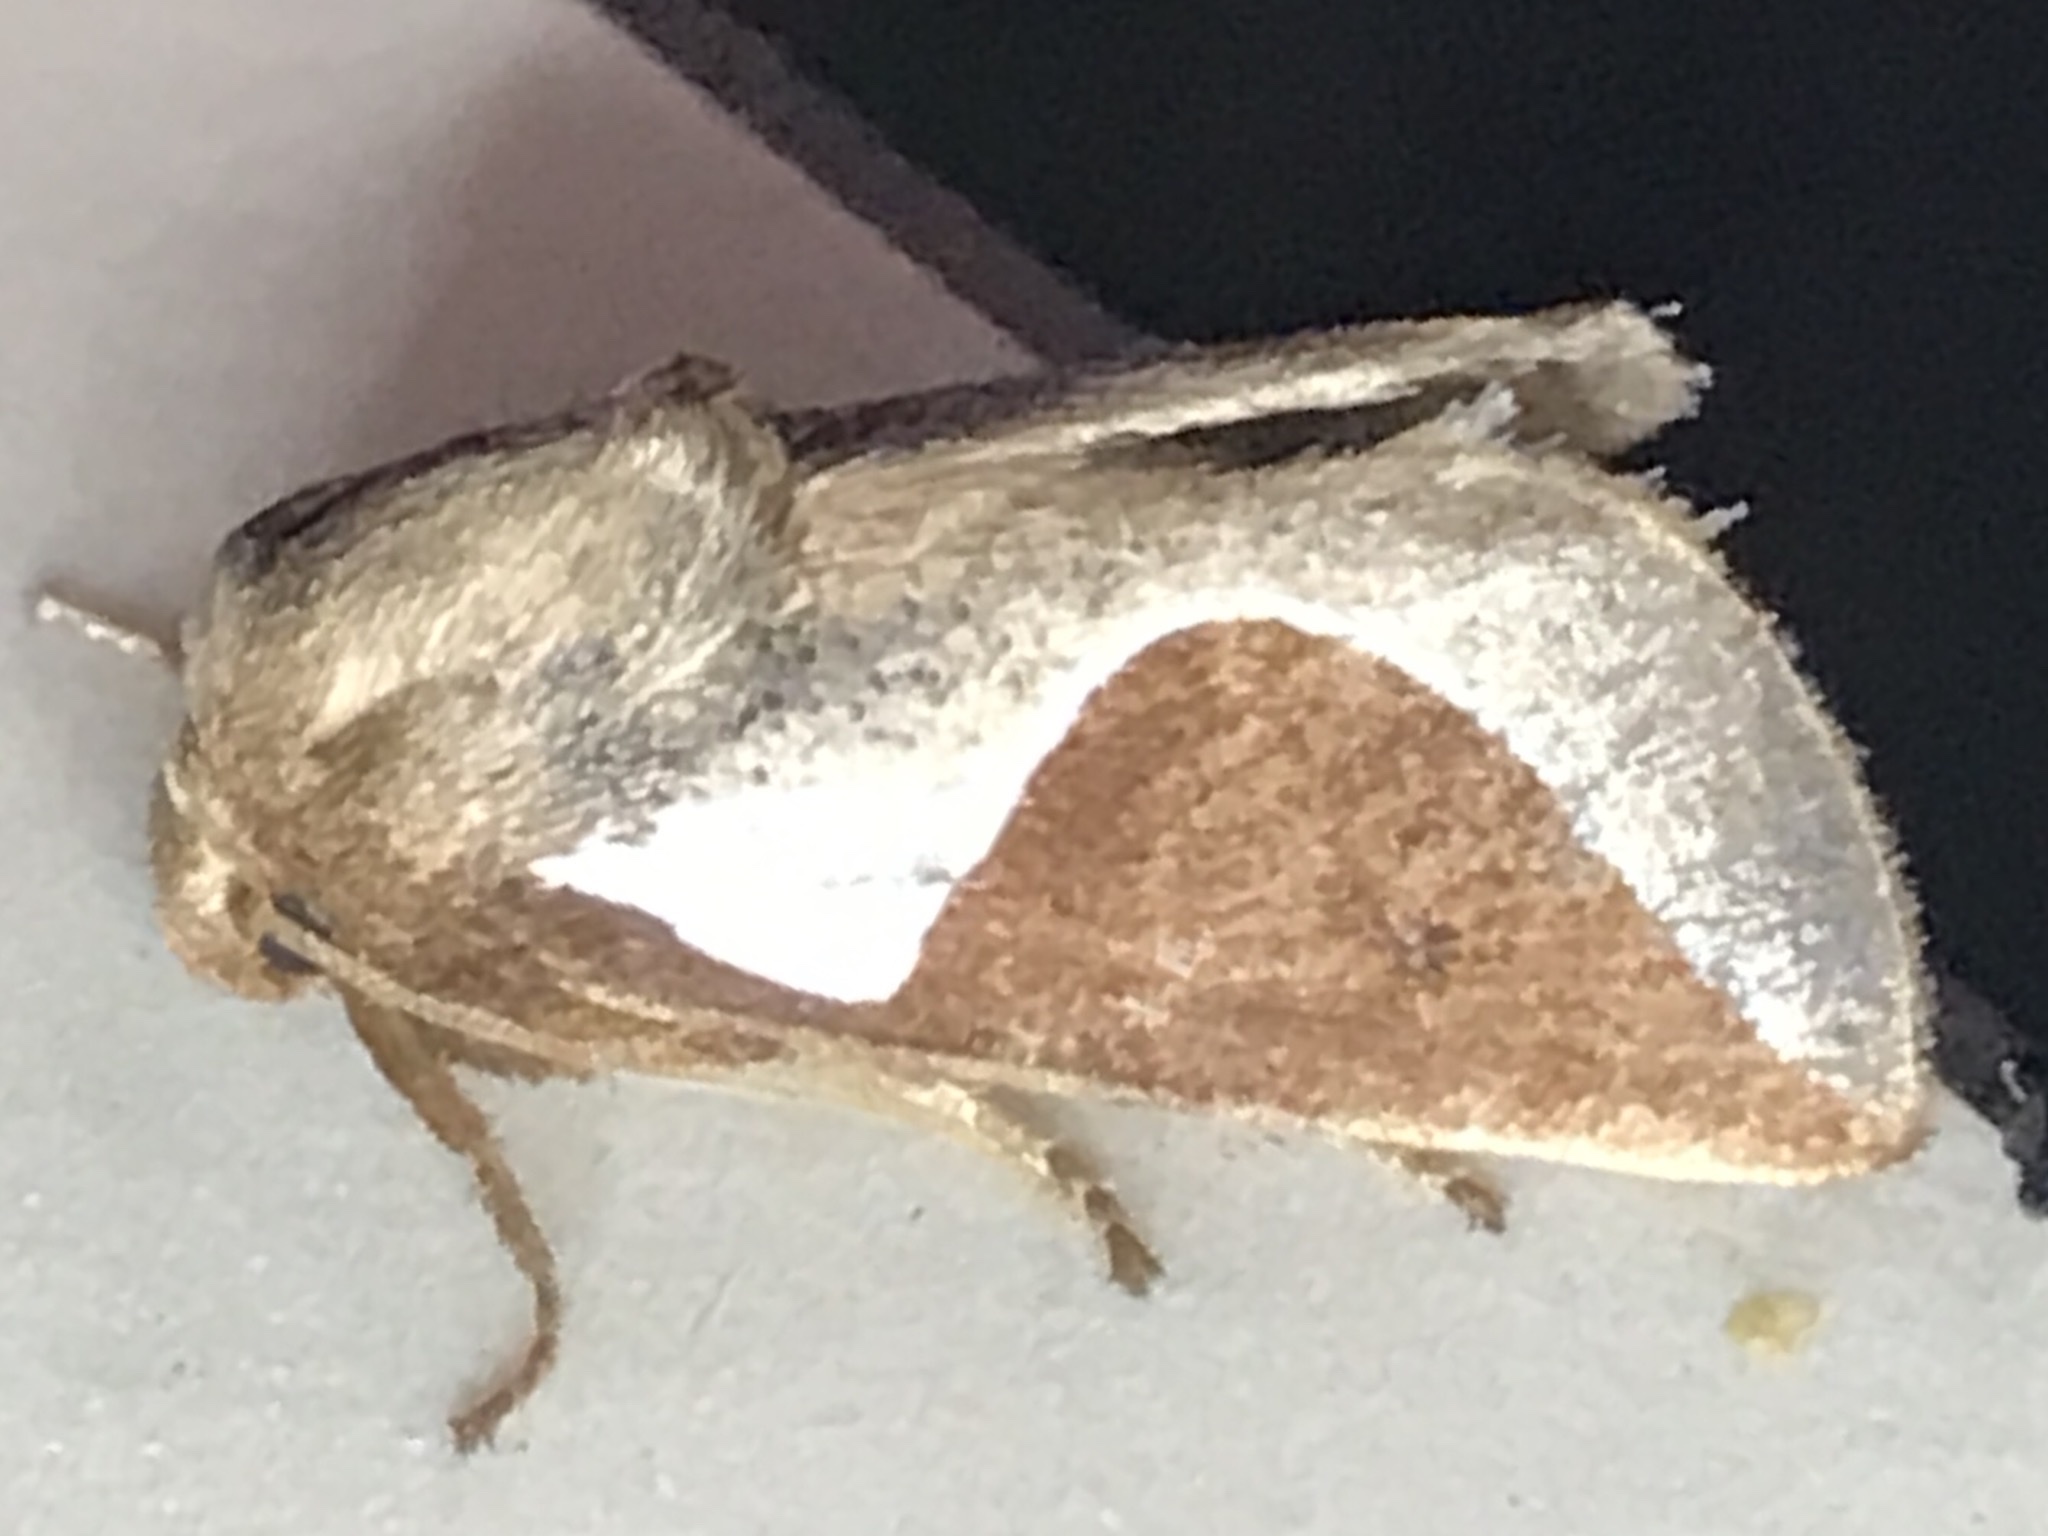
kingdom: Animalia
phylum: Arthropoda
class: Insecta
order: Lepidoptera
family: Limacodidae
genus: Prolimacodes
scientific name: Prolimacodes badia
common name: Skiff moth
